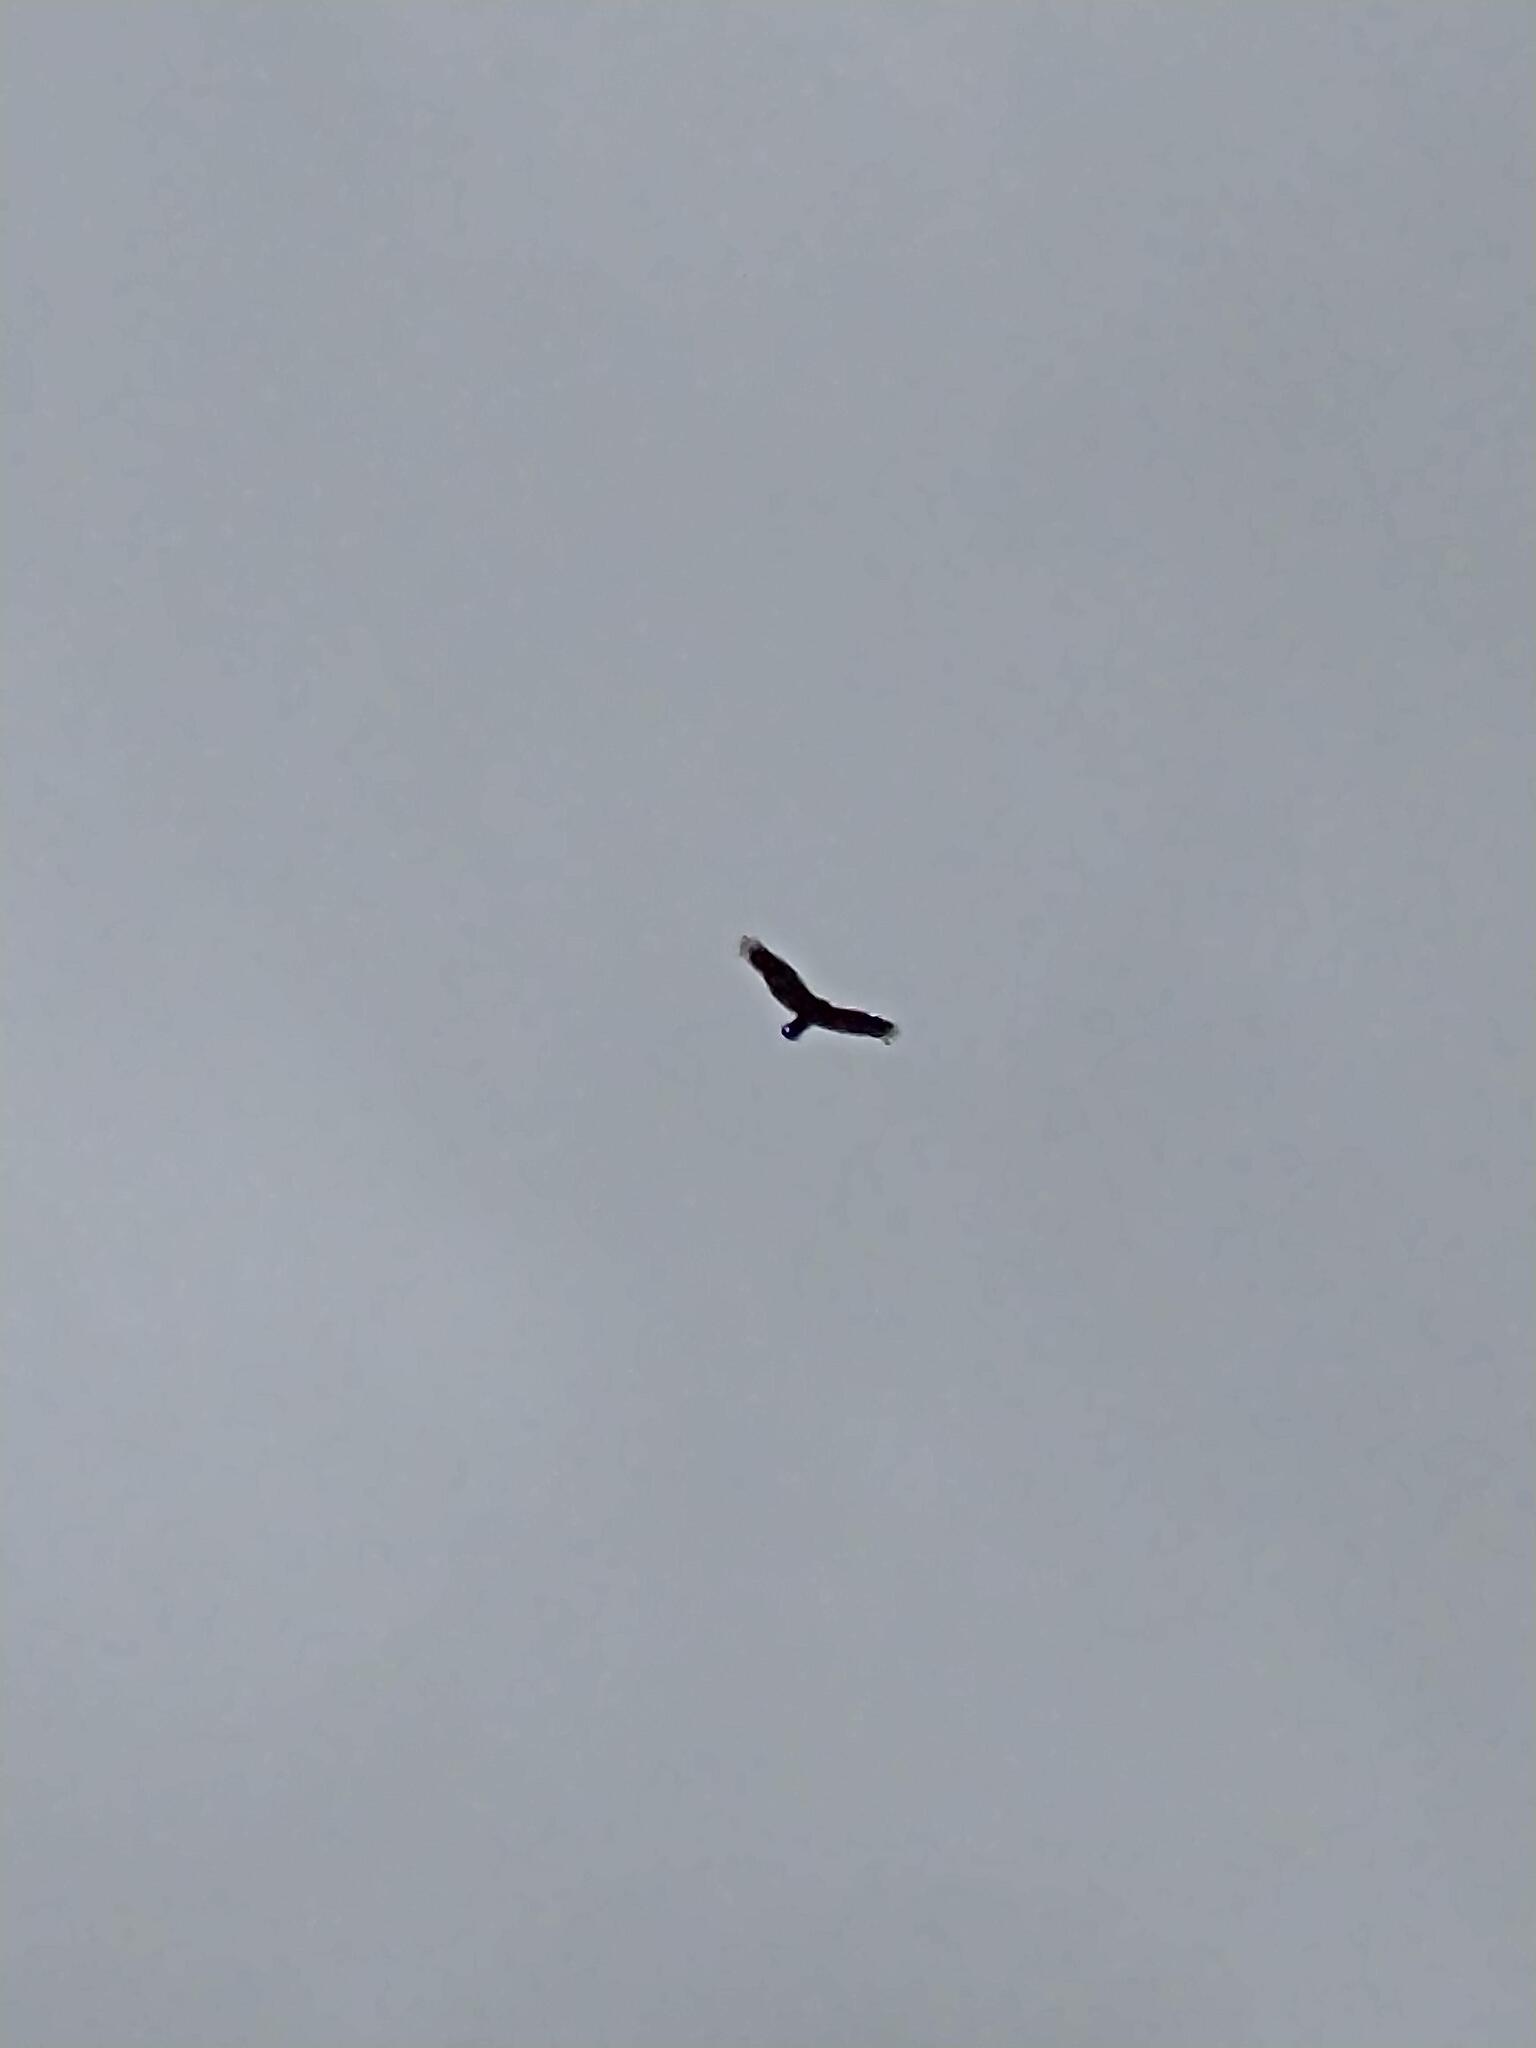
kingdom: Animalia
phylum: Chordata
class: Aves
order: Accipitriformes
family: Cathartidae
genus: Cathartes
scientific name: Cathartes aura
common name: Turkey vulture
